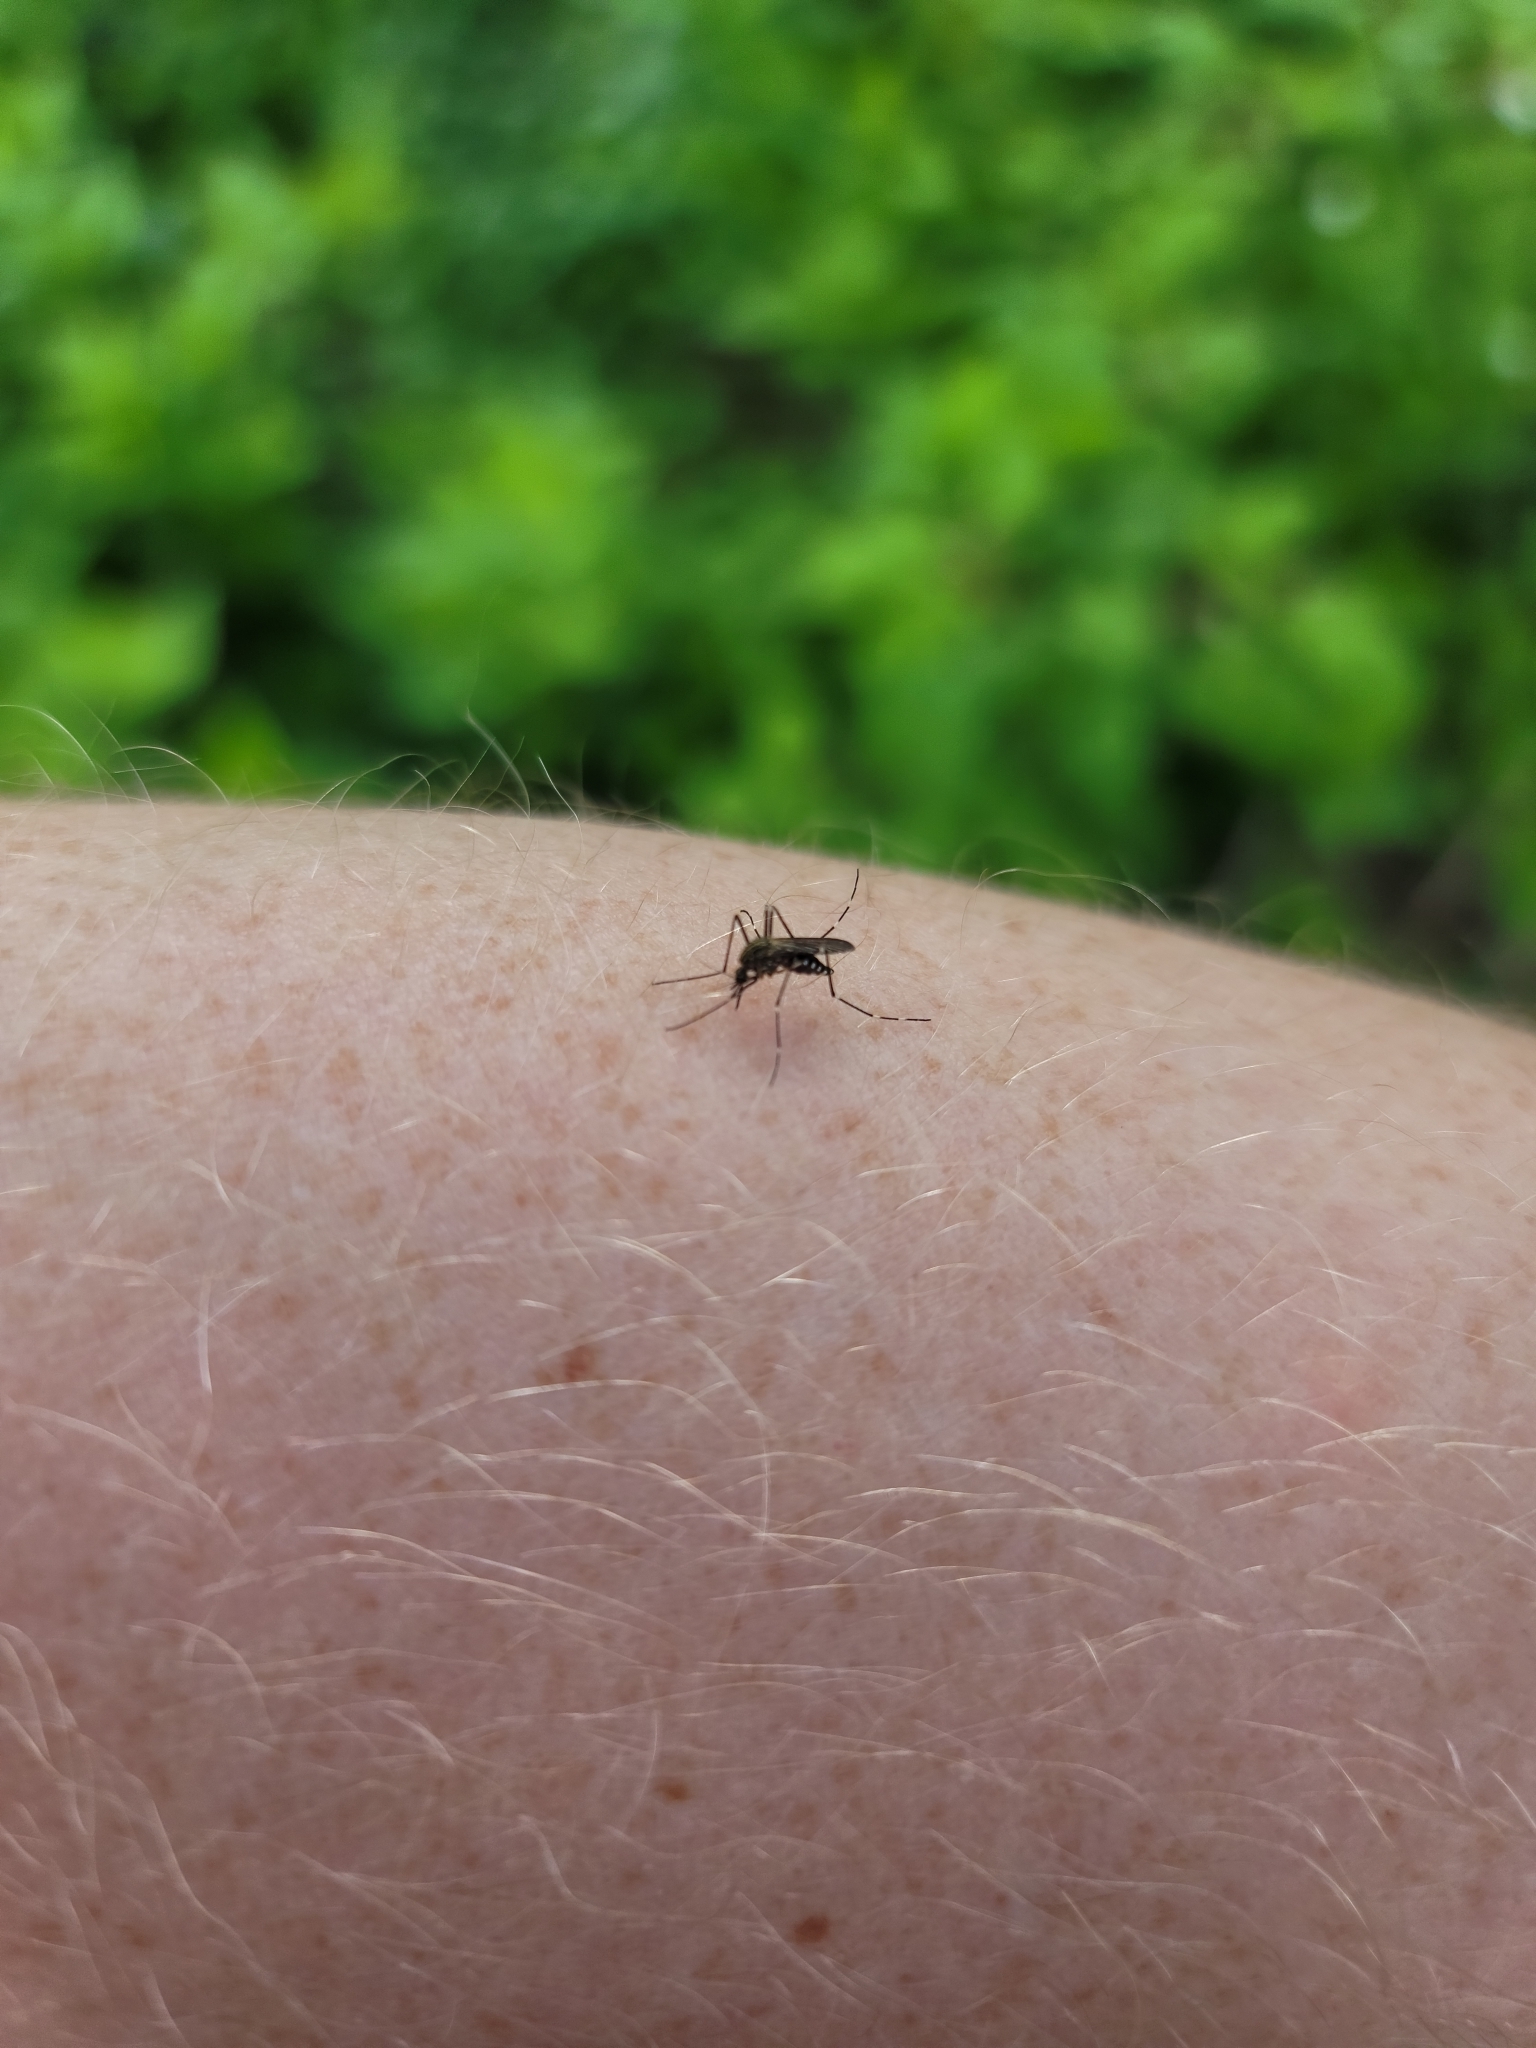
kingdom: Animalia
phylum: Arthropoda
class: Insecta
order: Diptera
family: Culicidae
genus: Aedes
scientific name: Aedes japonicus
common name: Asian bush mosquito
